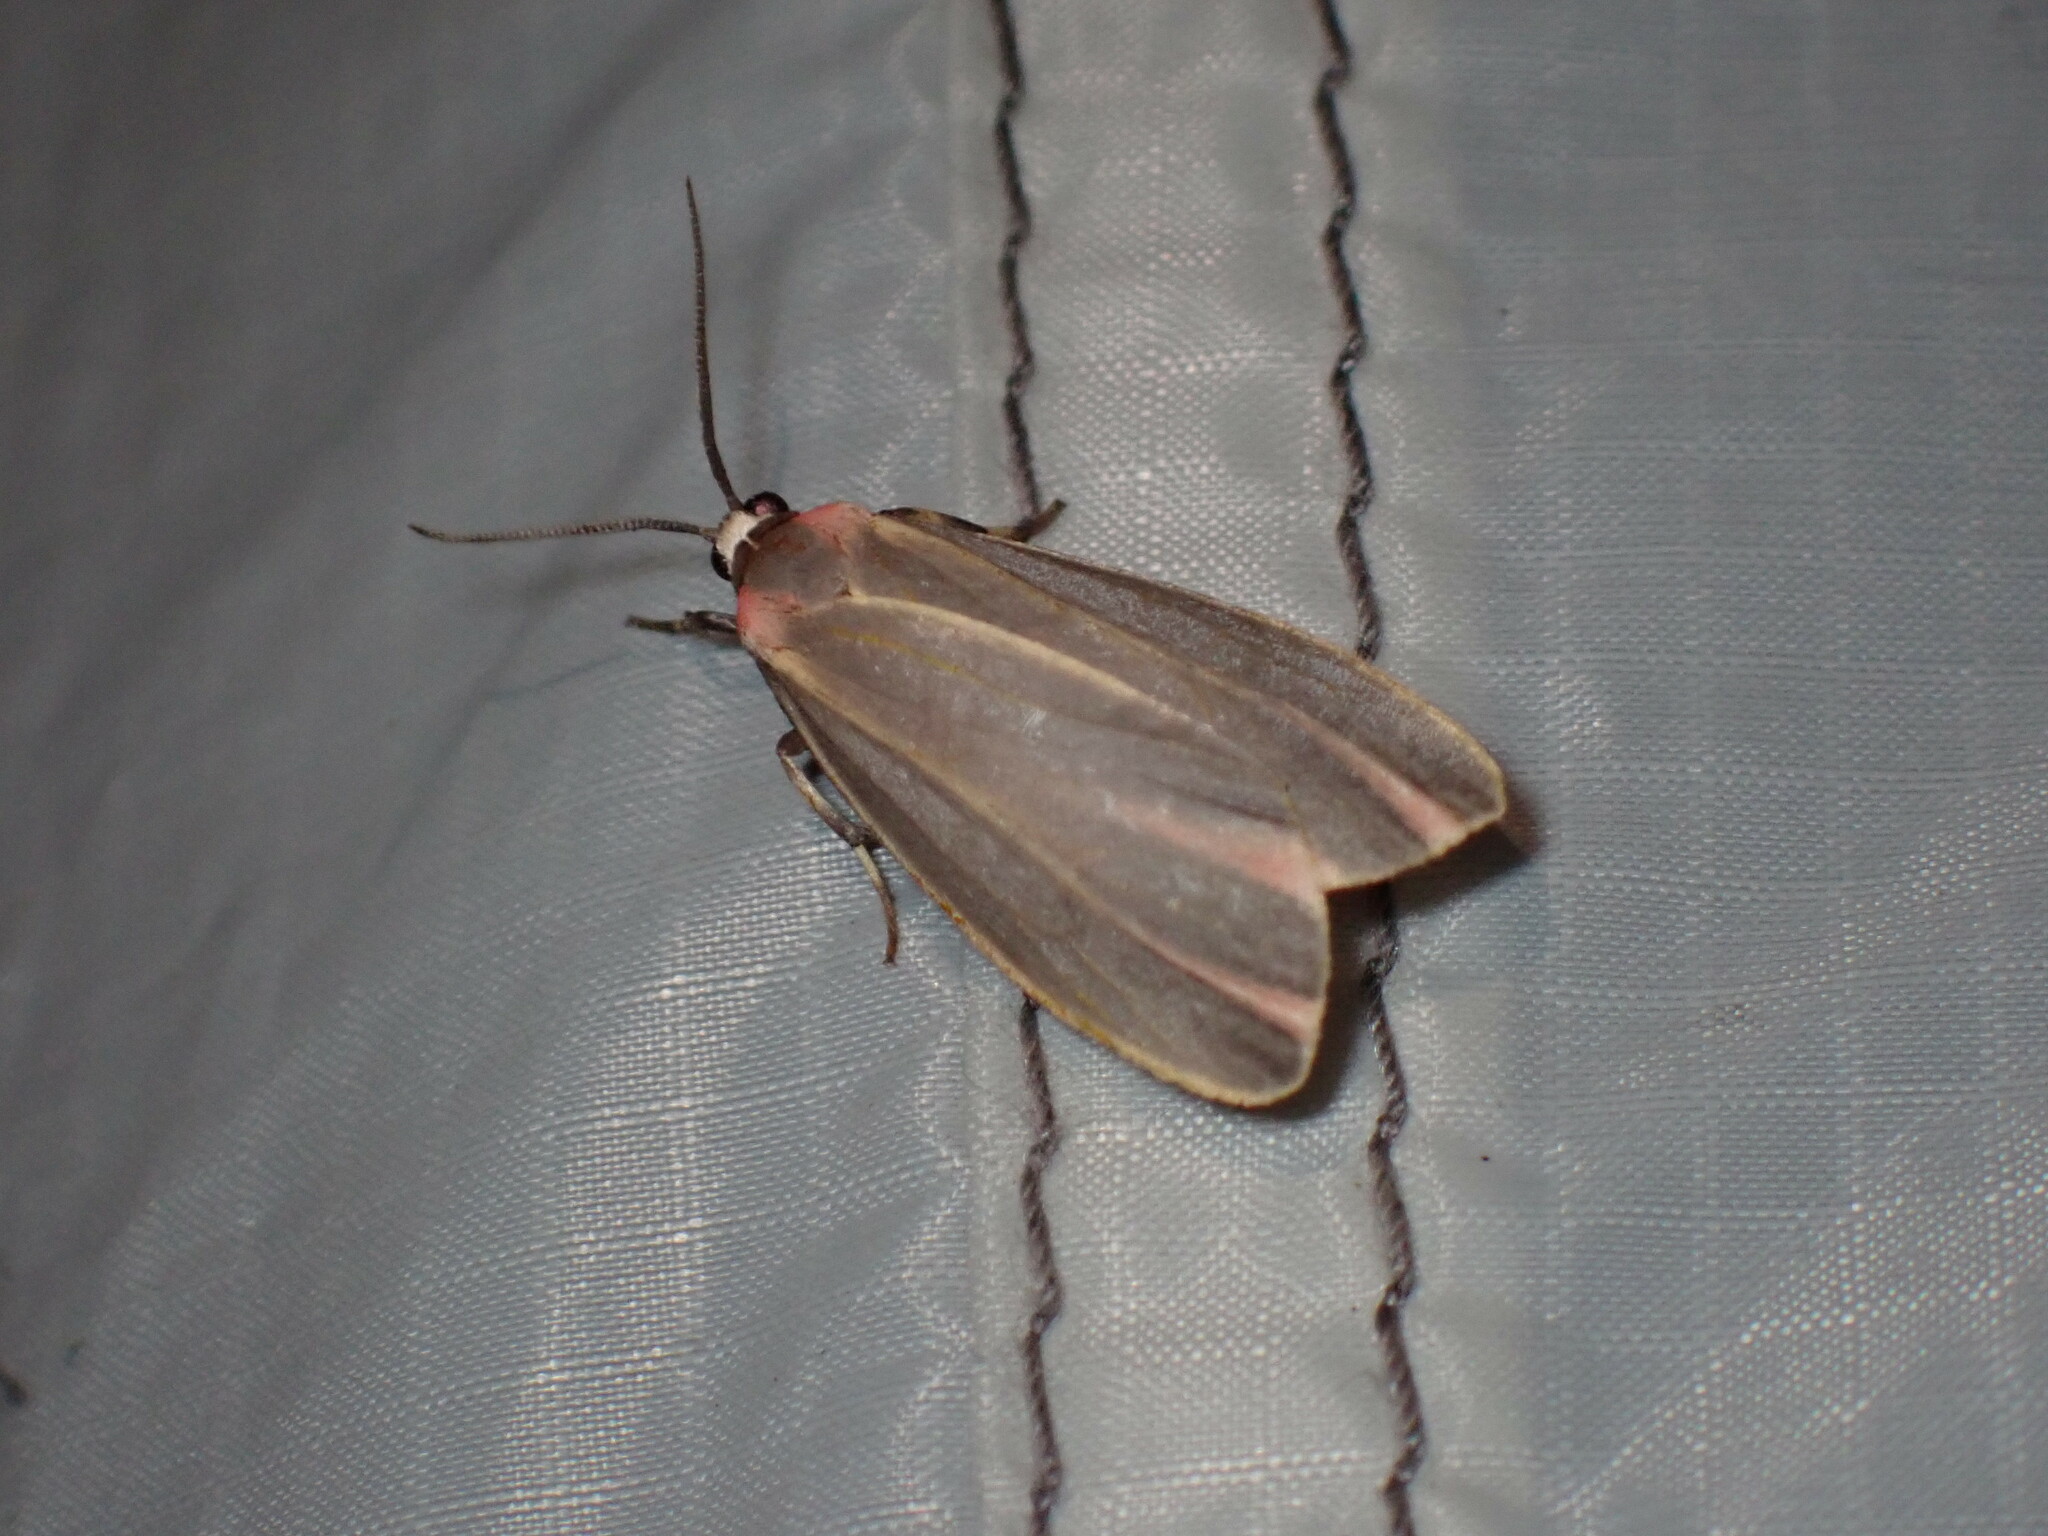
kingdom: Animalia
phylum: Arthropoda
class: Insecta
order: Lepidoptera
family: Erebidae
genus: Hypoprepia
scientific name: Hypoprepia fucosa
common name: Painted lichen moth
